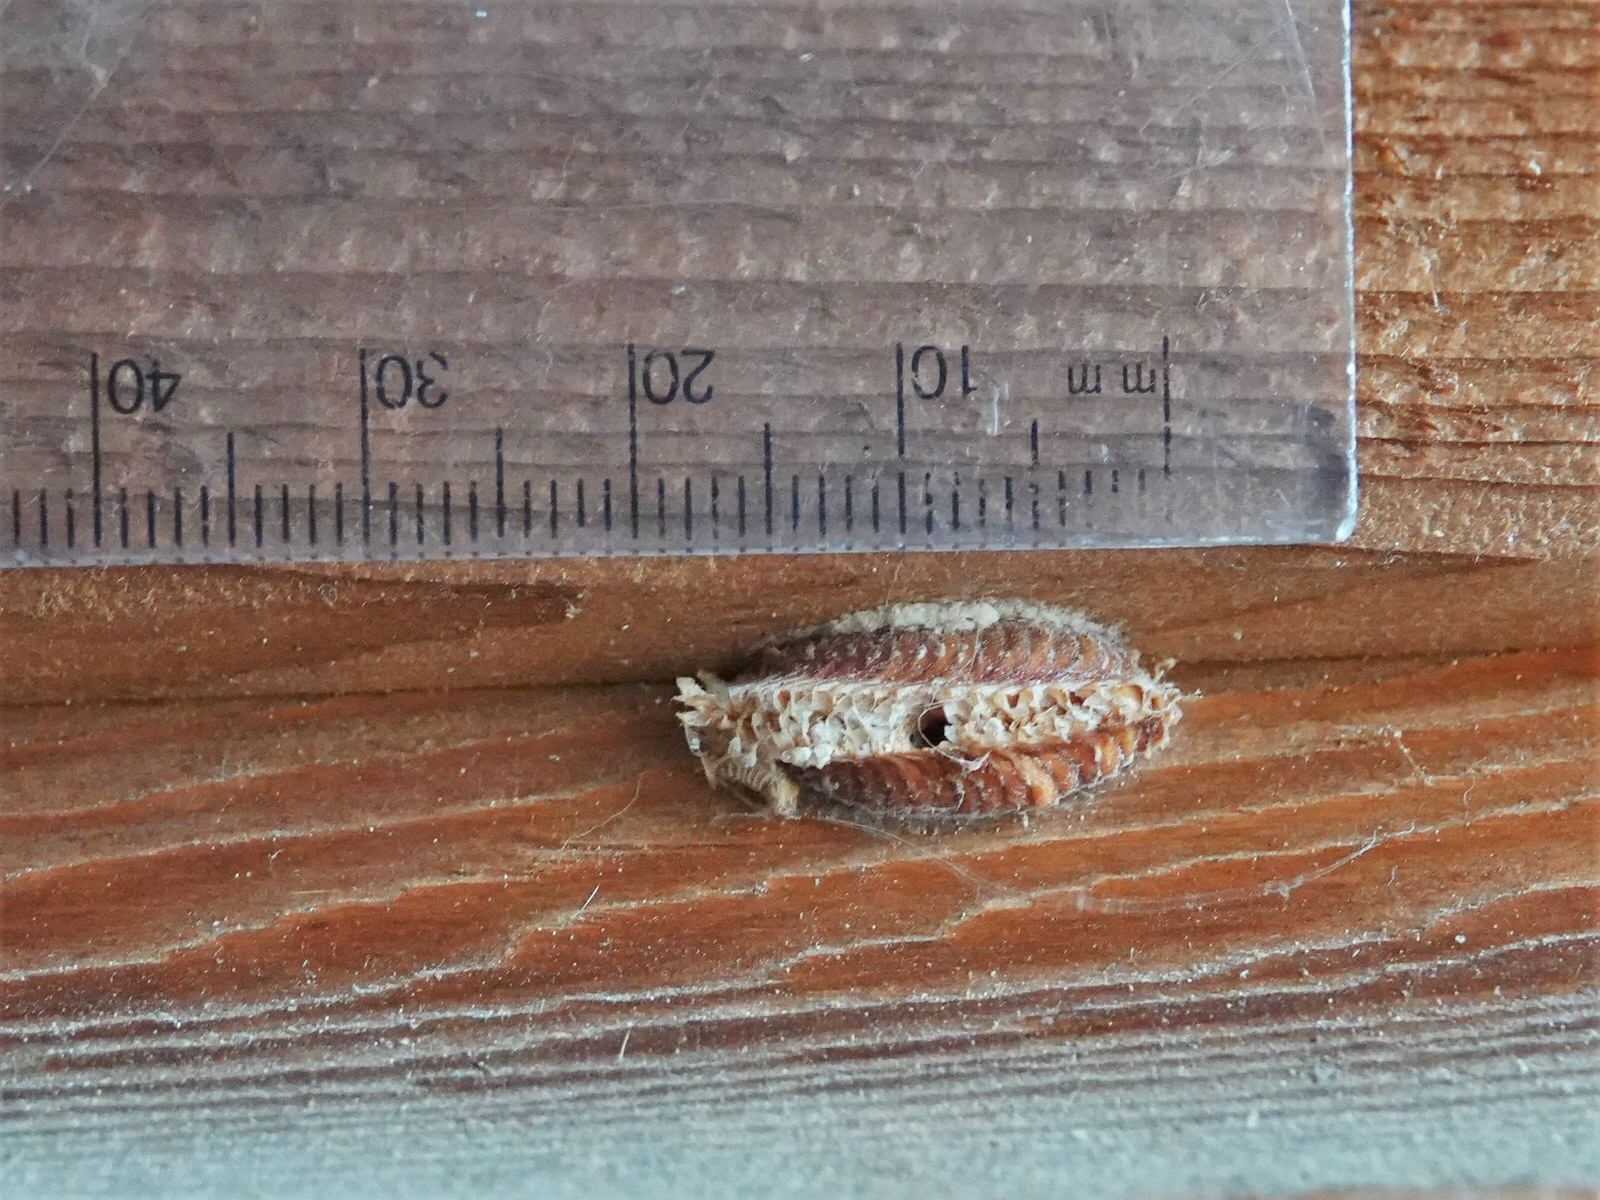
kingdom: Animalia
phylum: Arthropoda
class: Insecta
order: Mantodea
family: Miomantidae
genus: Miomantis
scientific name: Miomantis caffra
